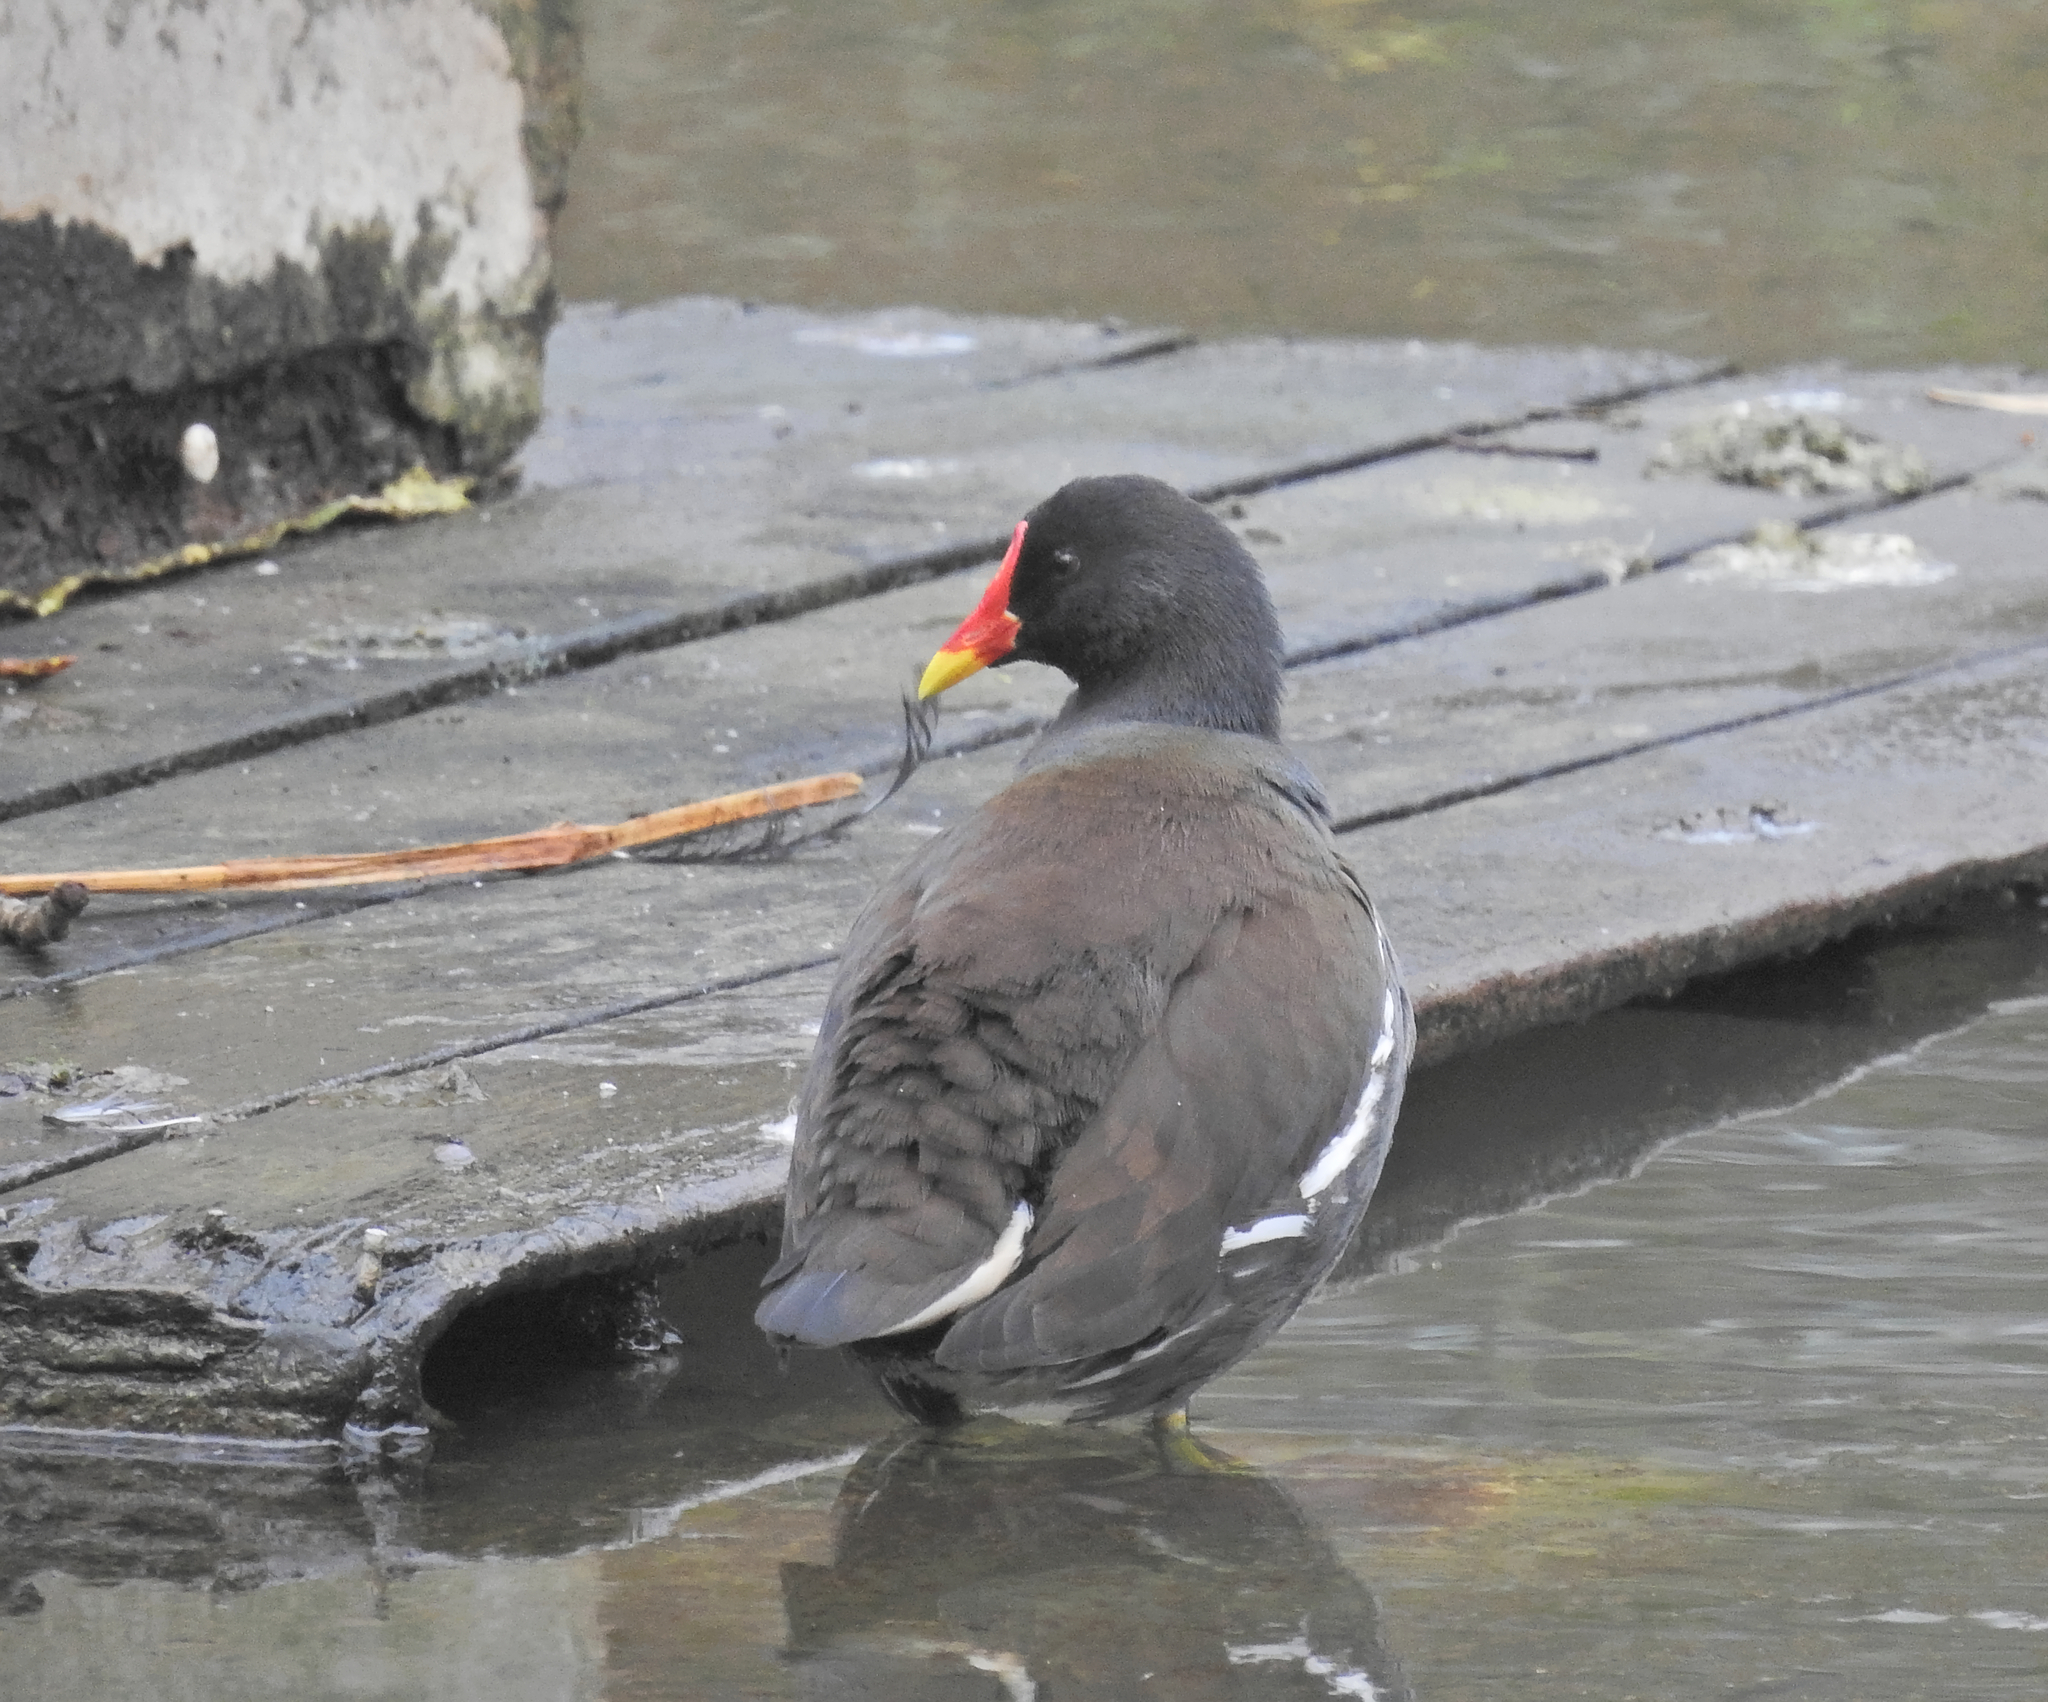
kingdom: Animalia
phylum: Chordata
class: Aves
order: Gruiformes
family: Rallidae
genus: Gallinula
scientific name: Gallinula chloropus
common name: Common moorhen
